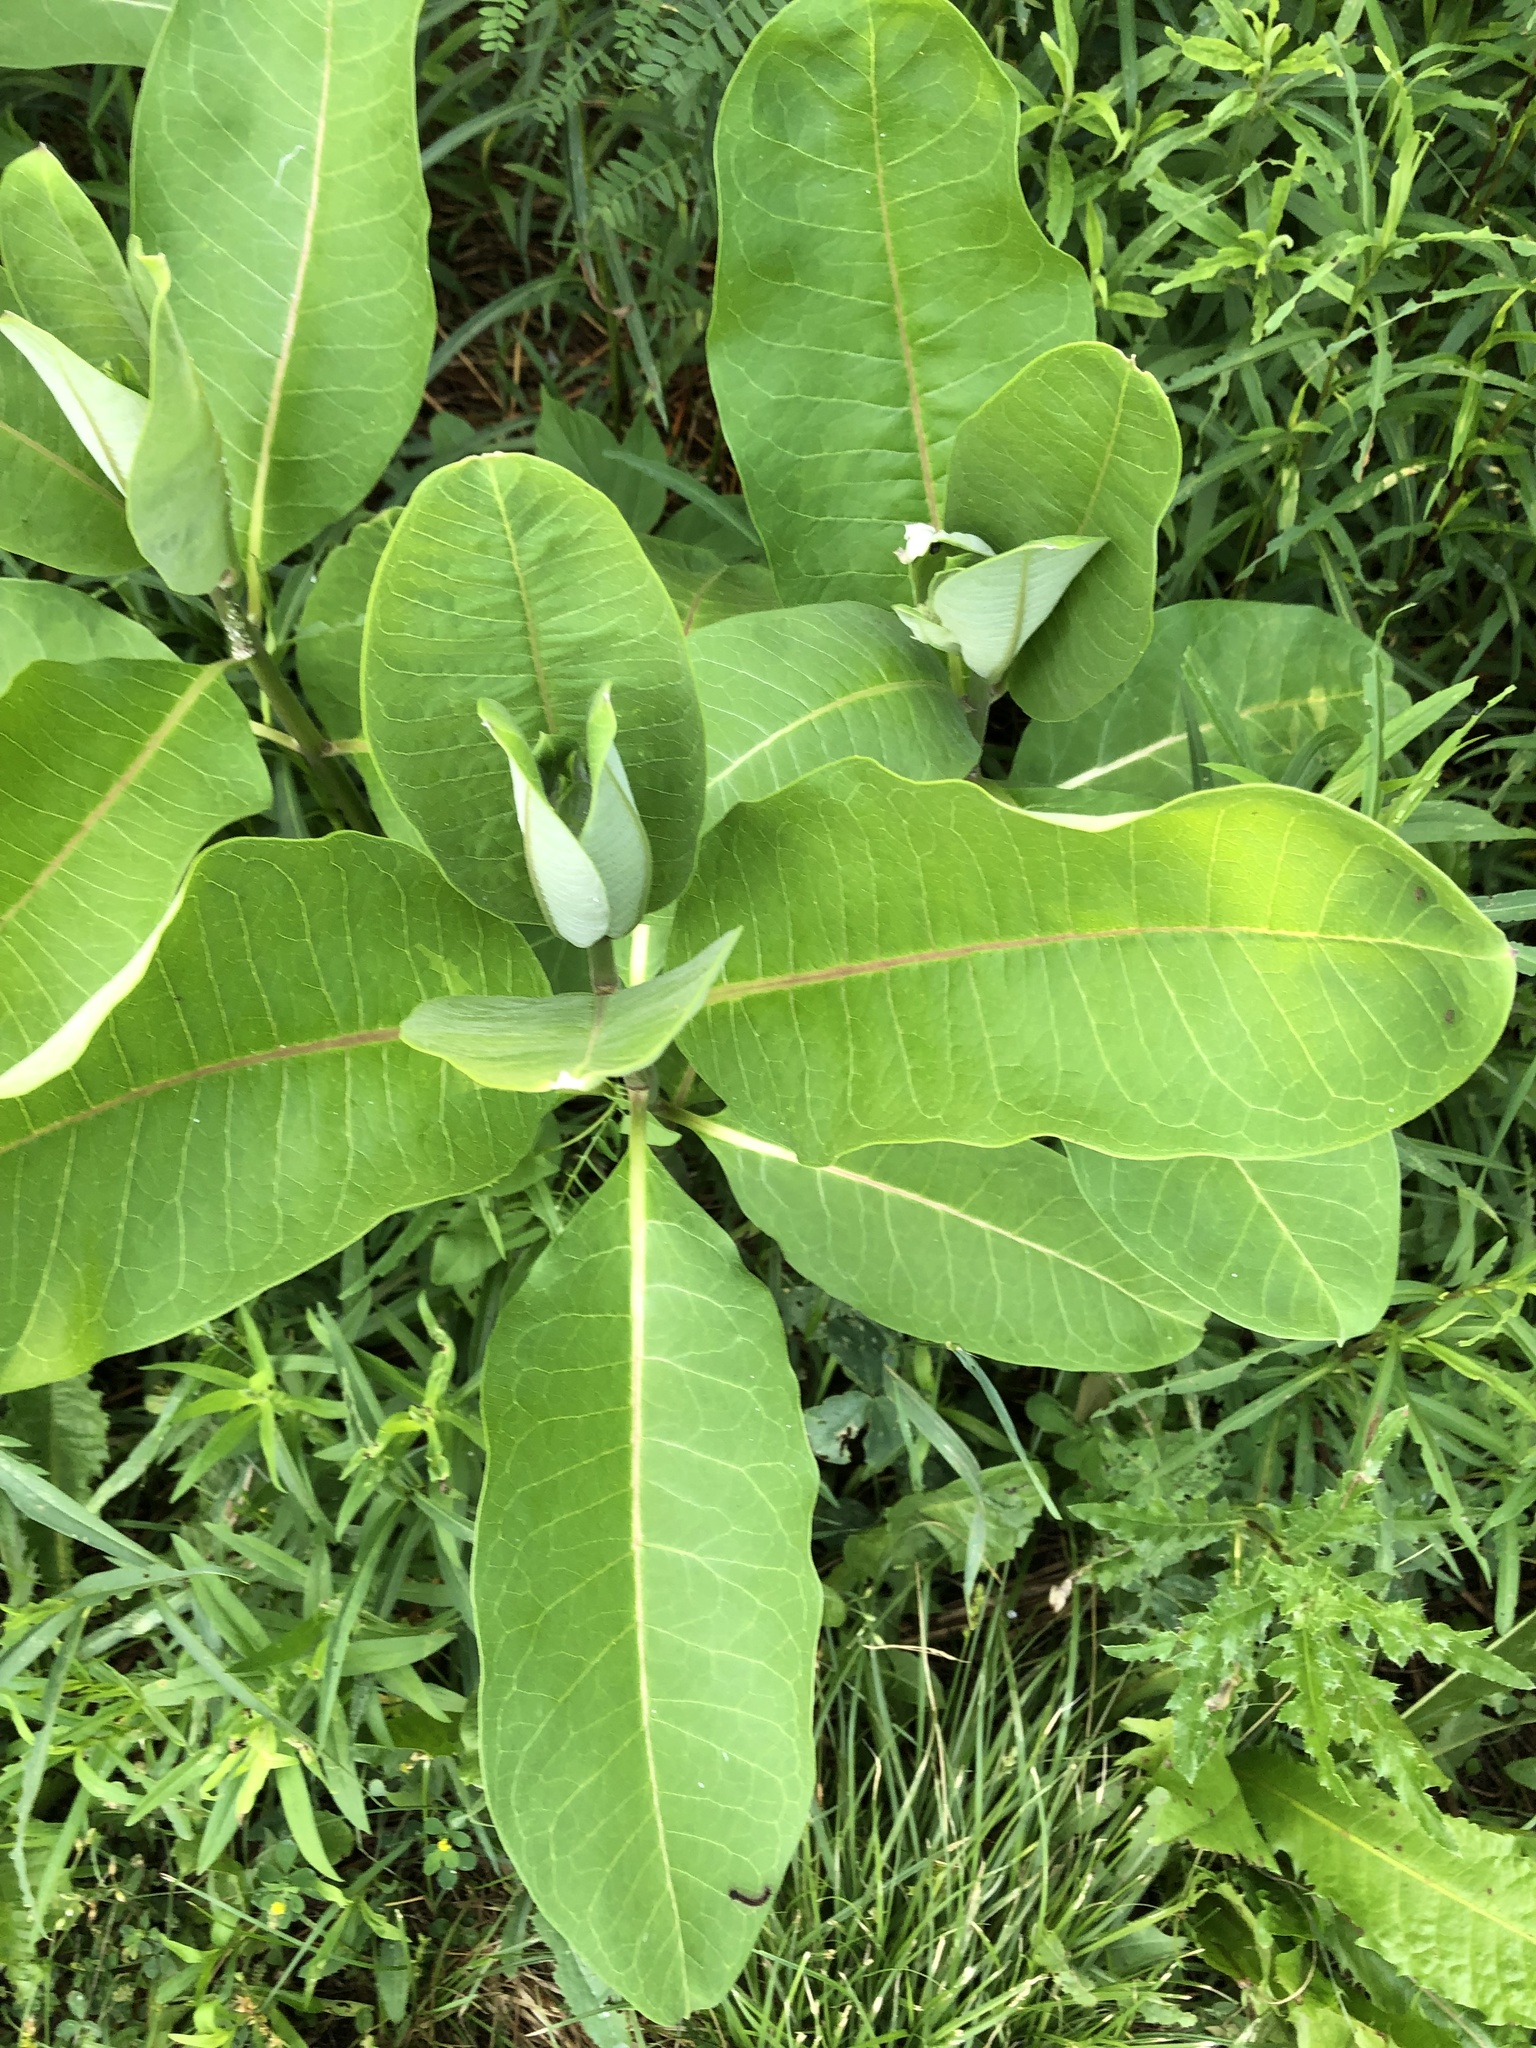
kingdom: Plantae
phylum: Tracheophyta
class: Magnoliopsida
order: Gentianales
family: Apocynaceae
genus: Asclepias
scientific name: Asclepias syriaca
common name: Common milkweed
